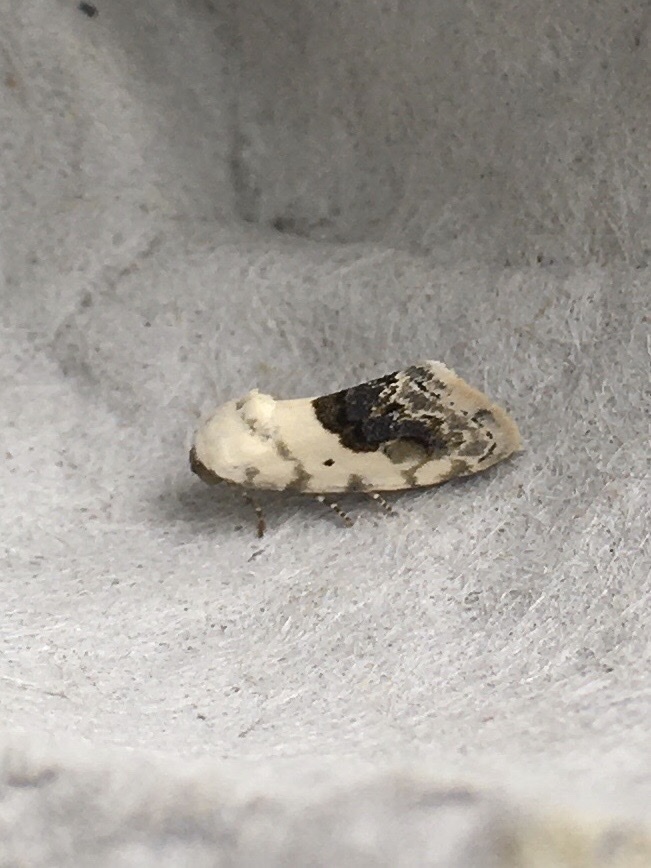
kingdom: Animalia
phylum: Arthropoda
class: Insecta
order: Lepidoptera
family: Noctuidae
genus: Acontia
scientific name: Acontia erastrioides
